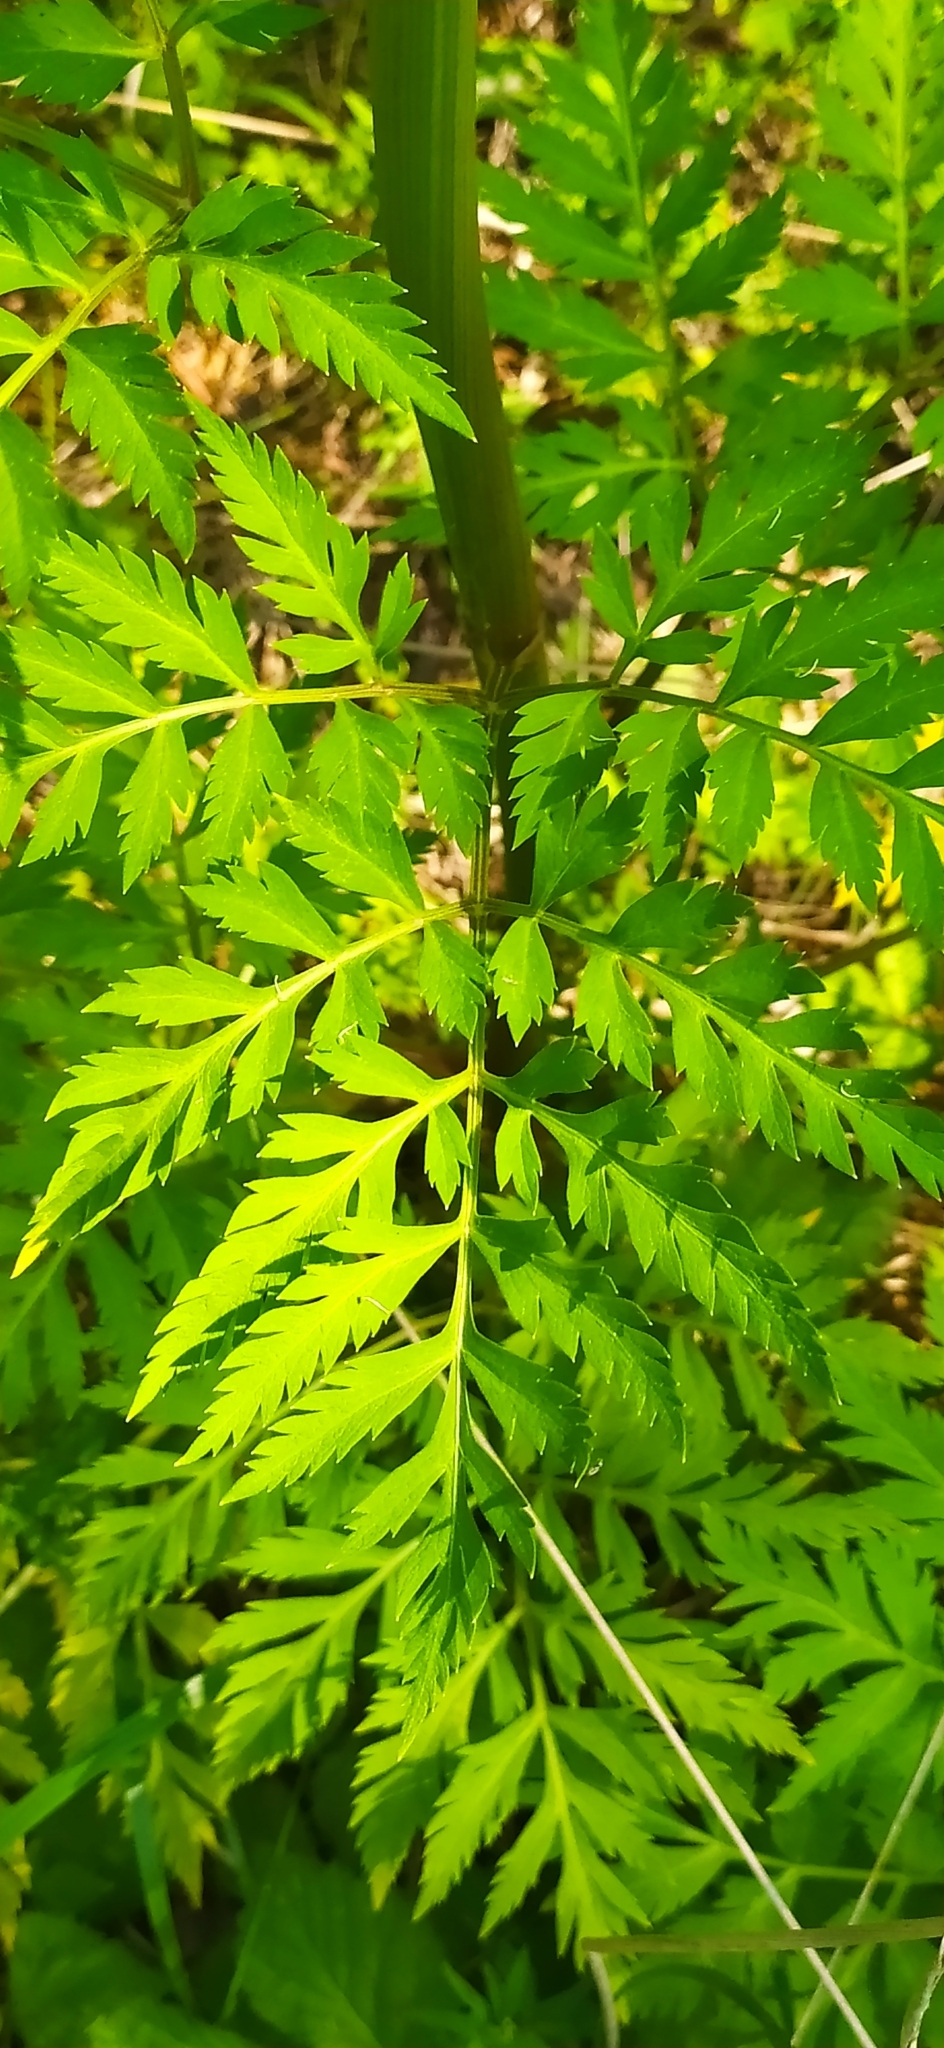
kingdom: Plantae
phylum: Tracheophyta
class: Magnoliopsida
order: Apiales
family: Apiaceae
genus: Pleurospermum
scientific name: Pleurospermum uralense
